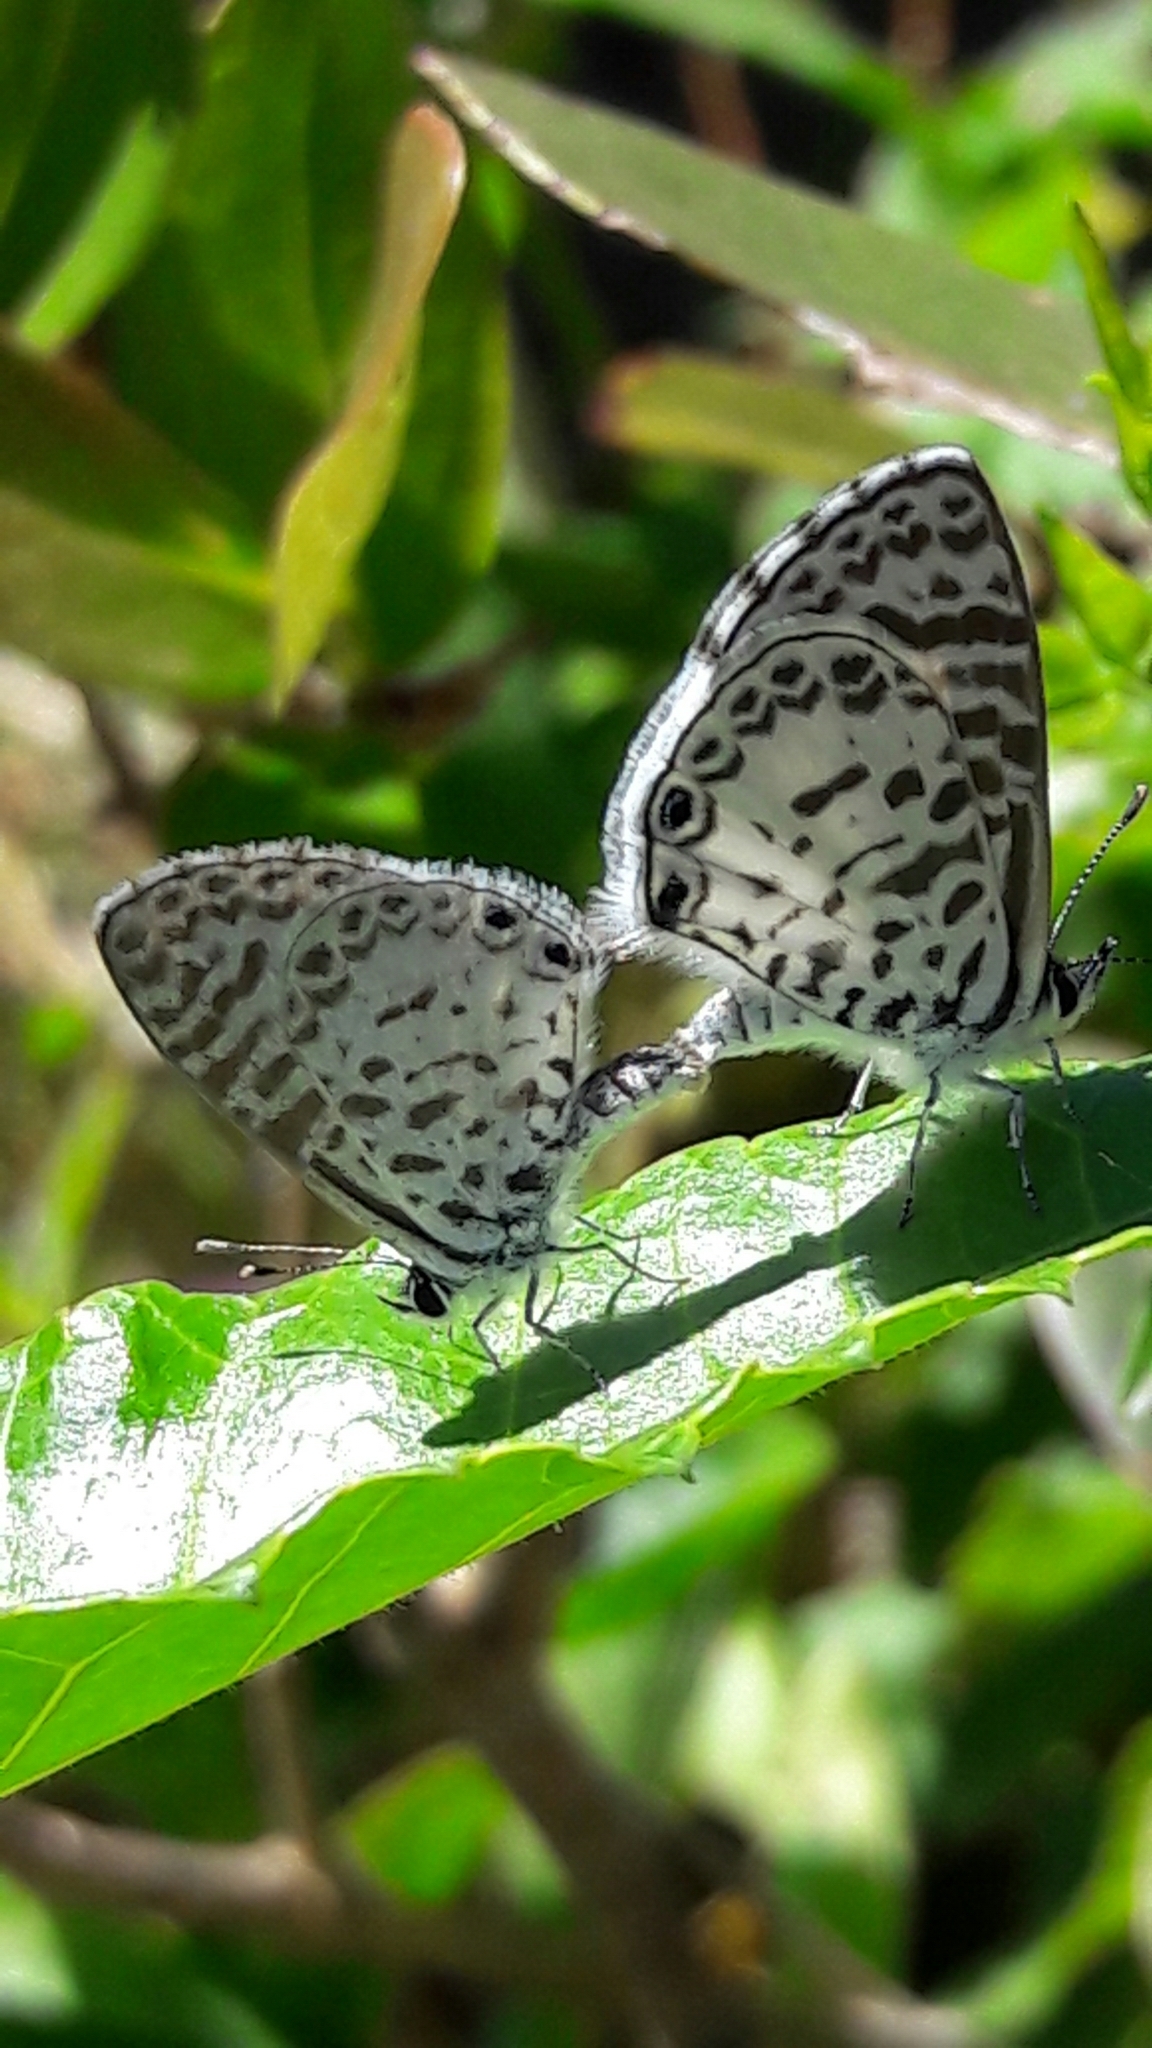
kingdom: Animalia
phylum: Arthropoda
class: Insecta
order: Lepidoptera
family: Lycaenidae
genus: Leptotes
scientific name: Leptotes cassius
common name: Cassius blue
